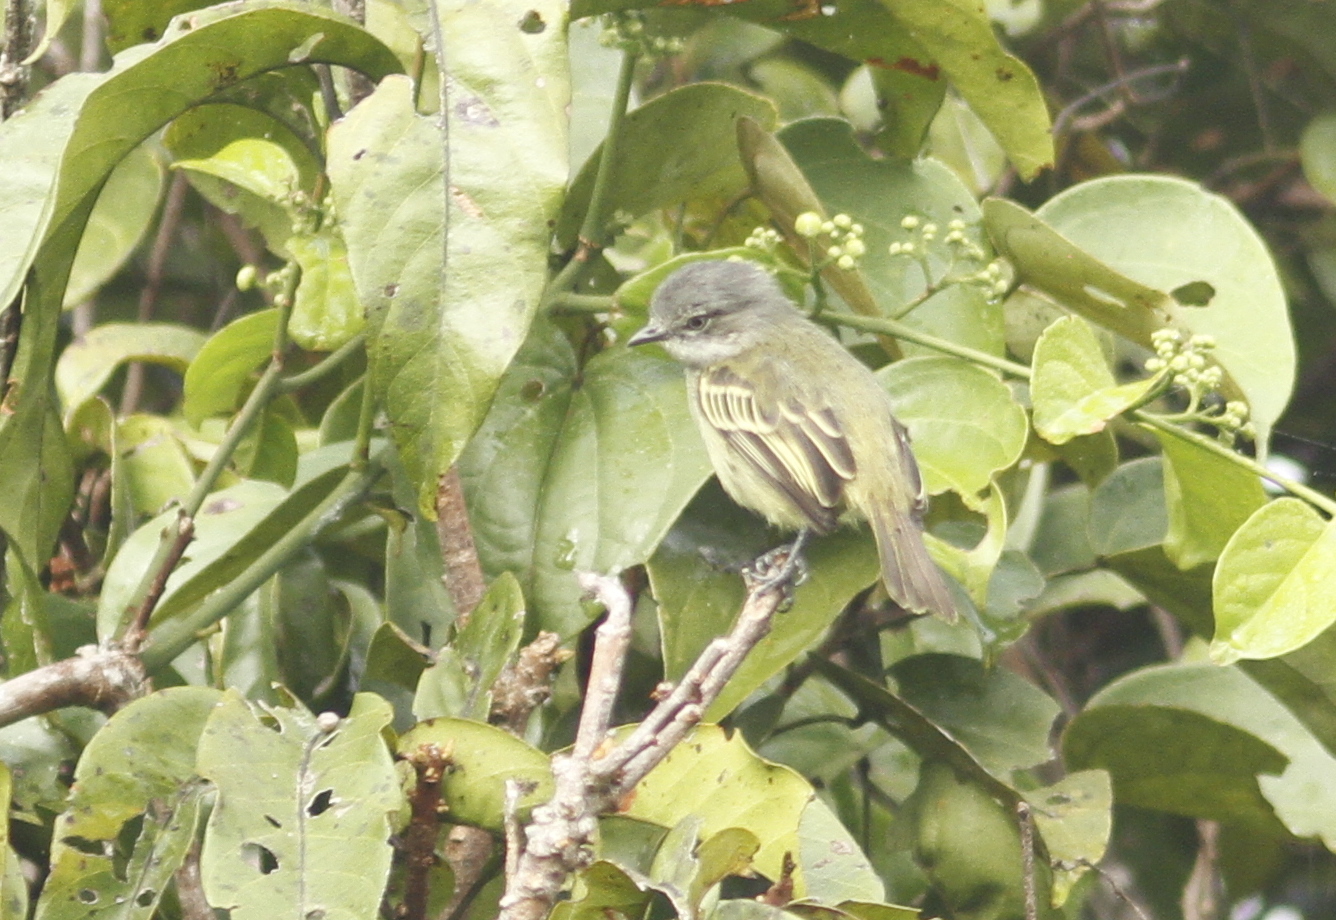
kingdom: Animalia
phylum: Chordata
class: Aves
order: Passeriformes
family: Tyrannidae
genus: Zimmerius
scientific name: Zimmerius gracilipes
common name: Slender-footed tyrannulet
